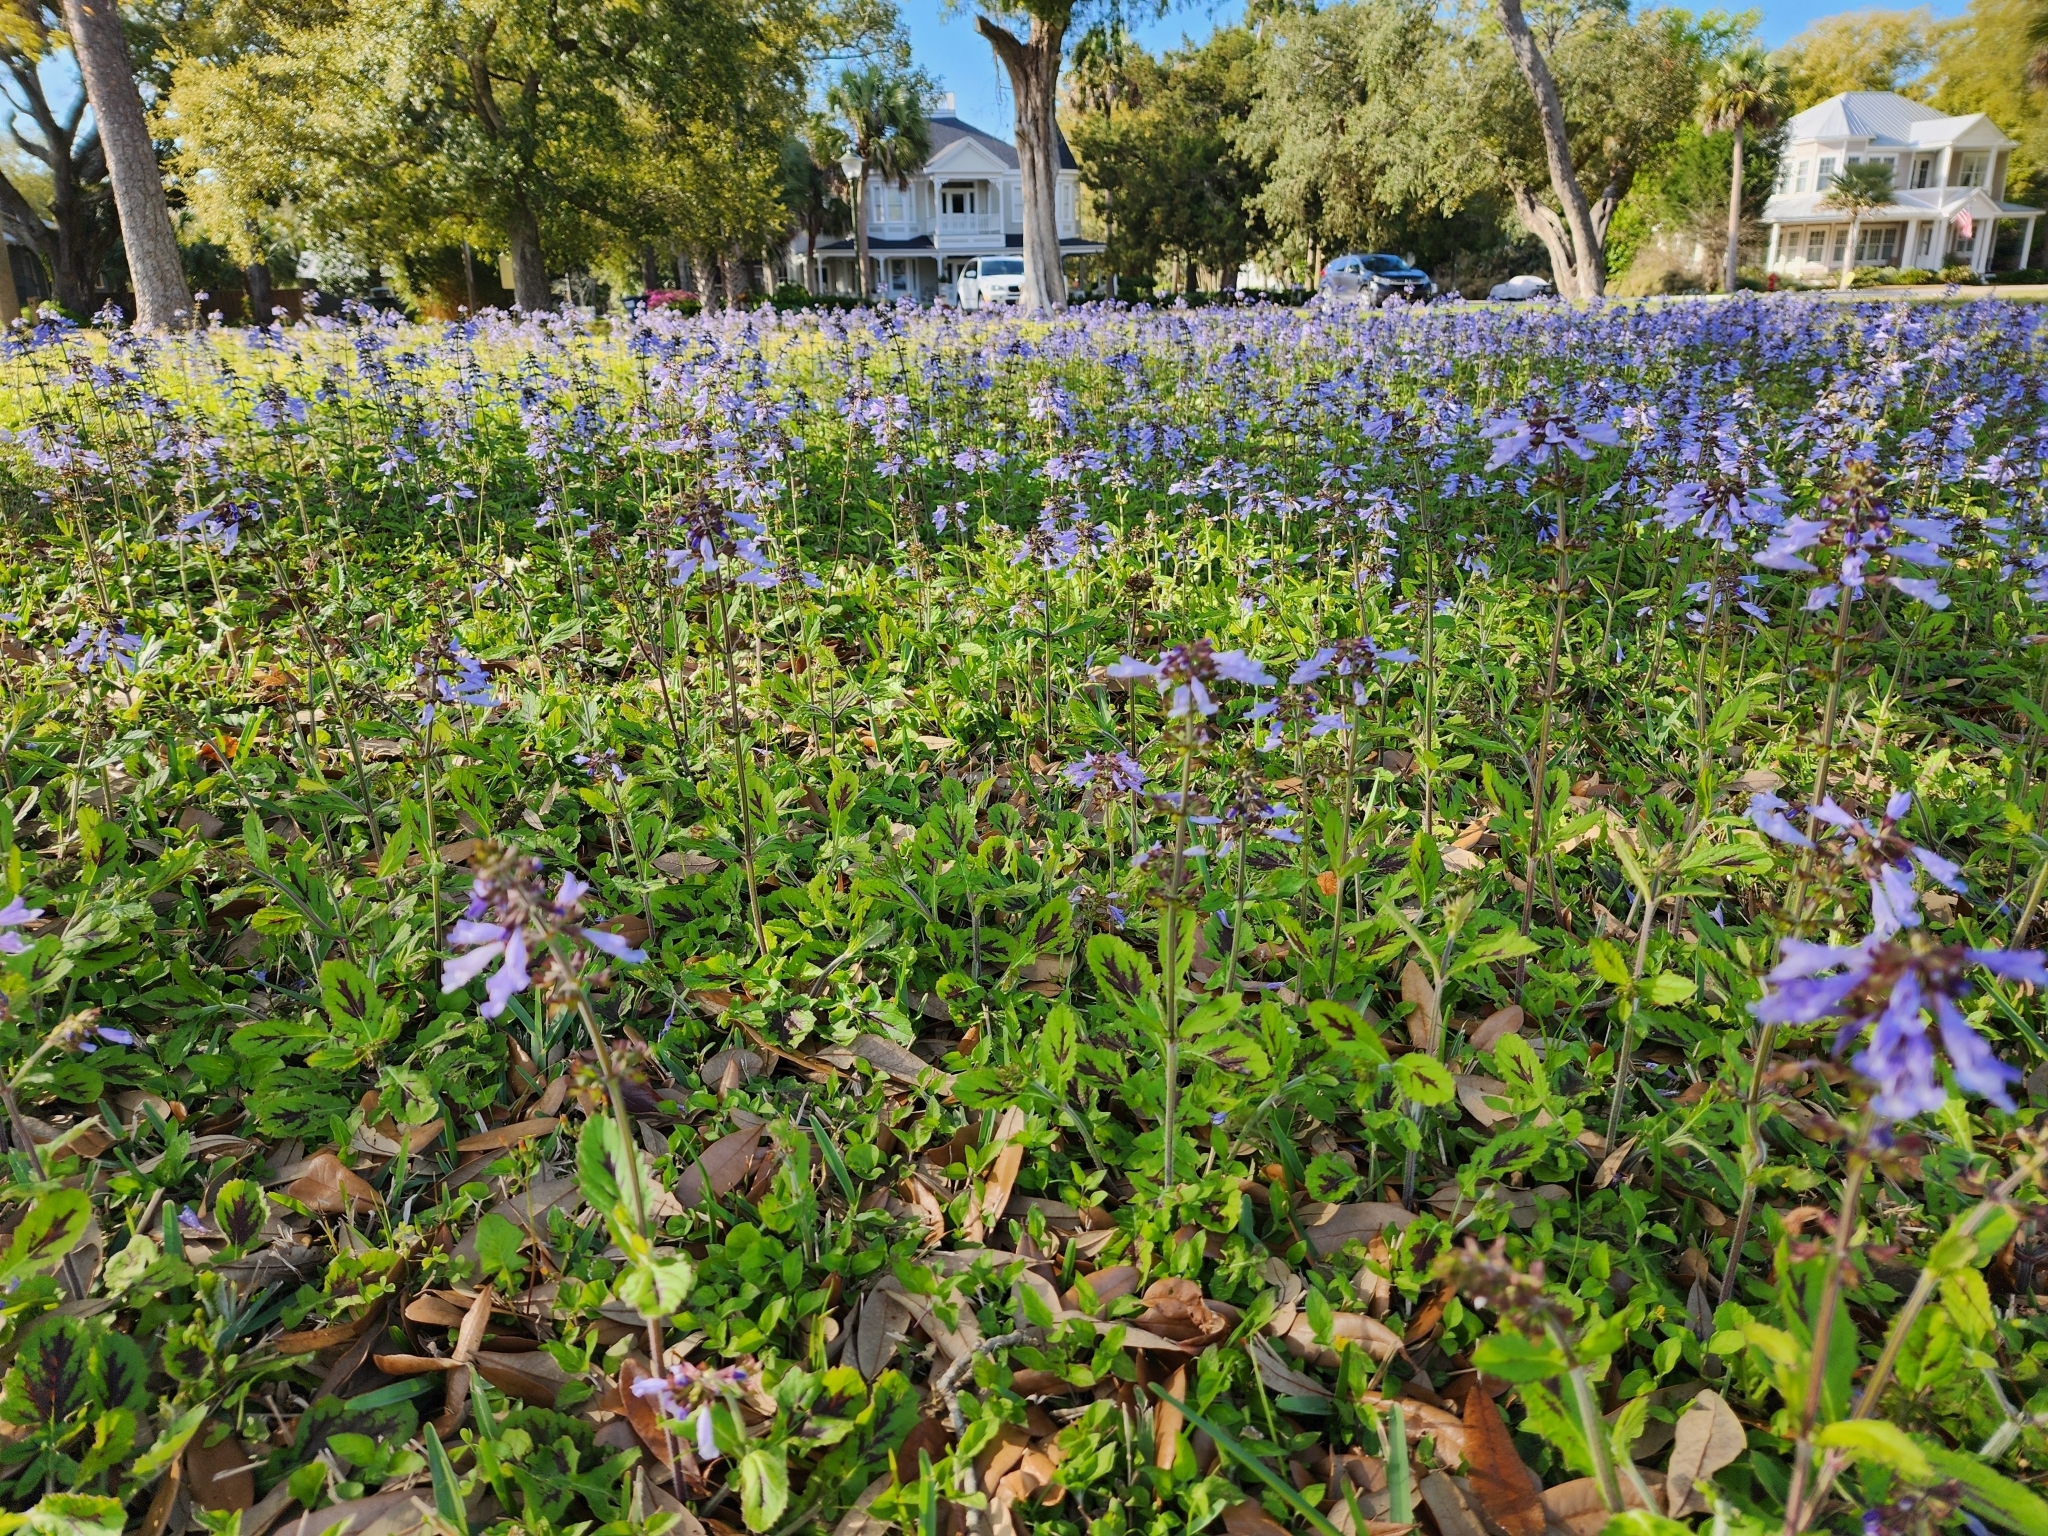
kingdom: Plantae
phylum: Tracheophyta
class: Magnoliopsida
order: Lamiales
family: Lamiaceae
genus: Salvia
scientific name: Salvia lyrata
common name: Cancerweed
